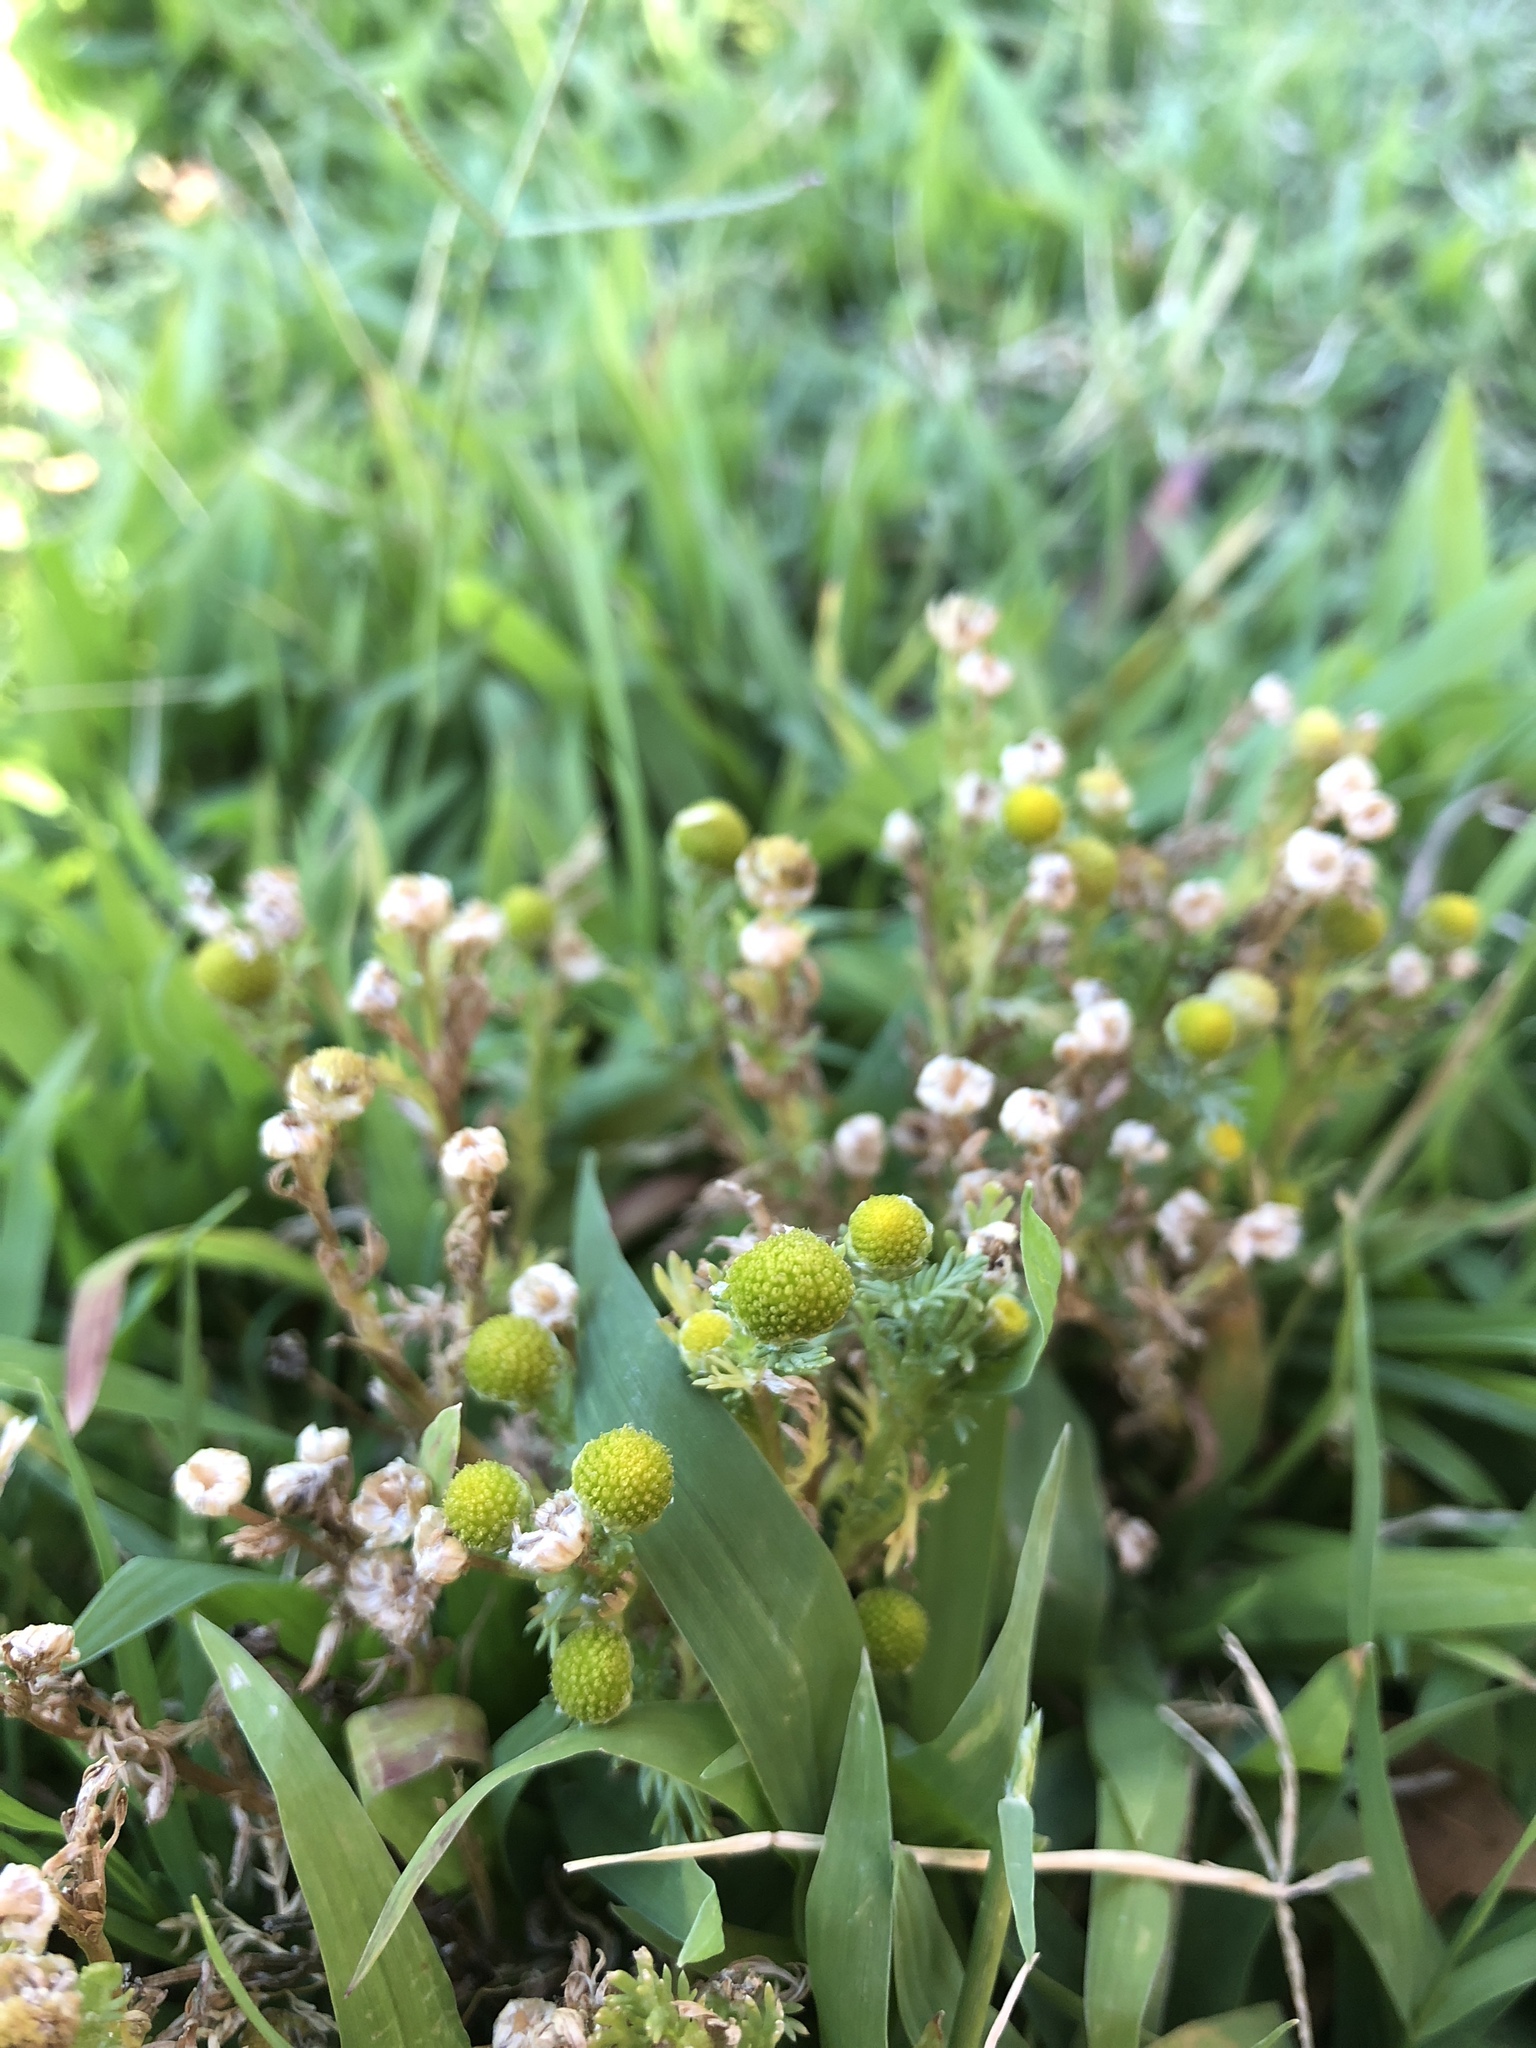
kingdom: Plantae
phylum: Tracheophyta
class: Magnoliopsida
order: Asterales
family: Asteraceae
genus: Matricaria
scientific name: Matricaria discoidea
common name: Disc mayweed
